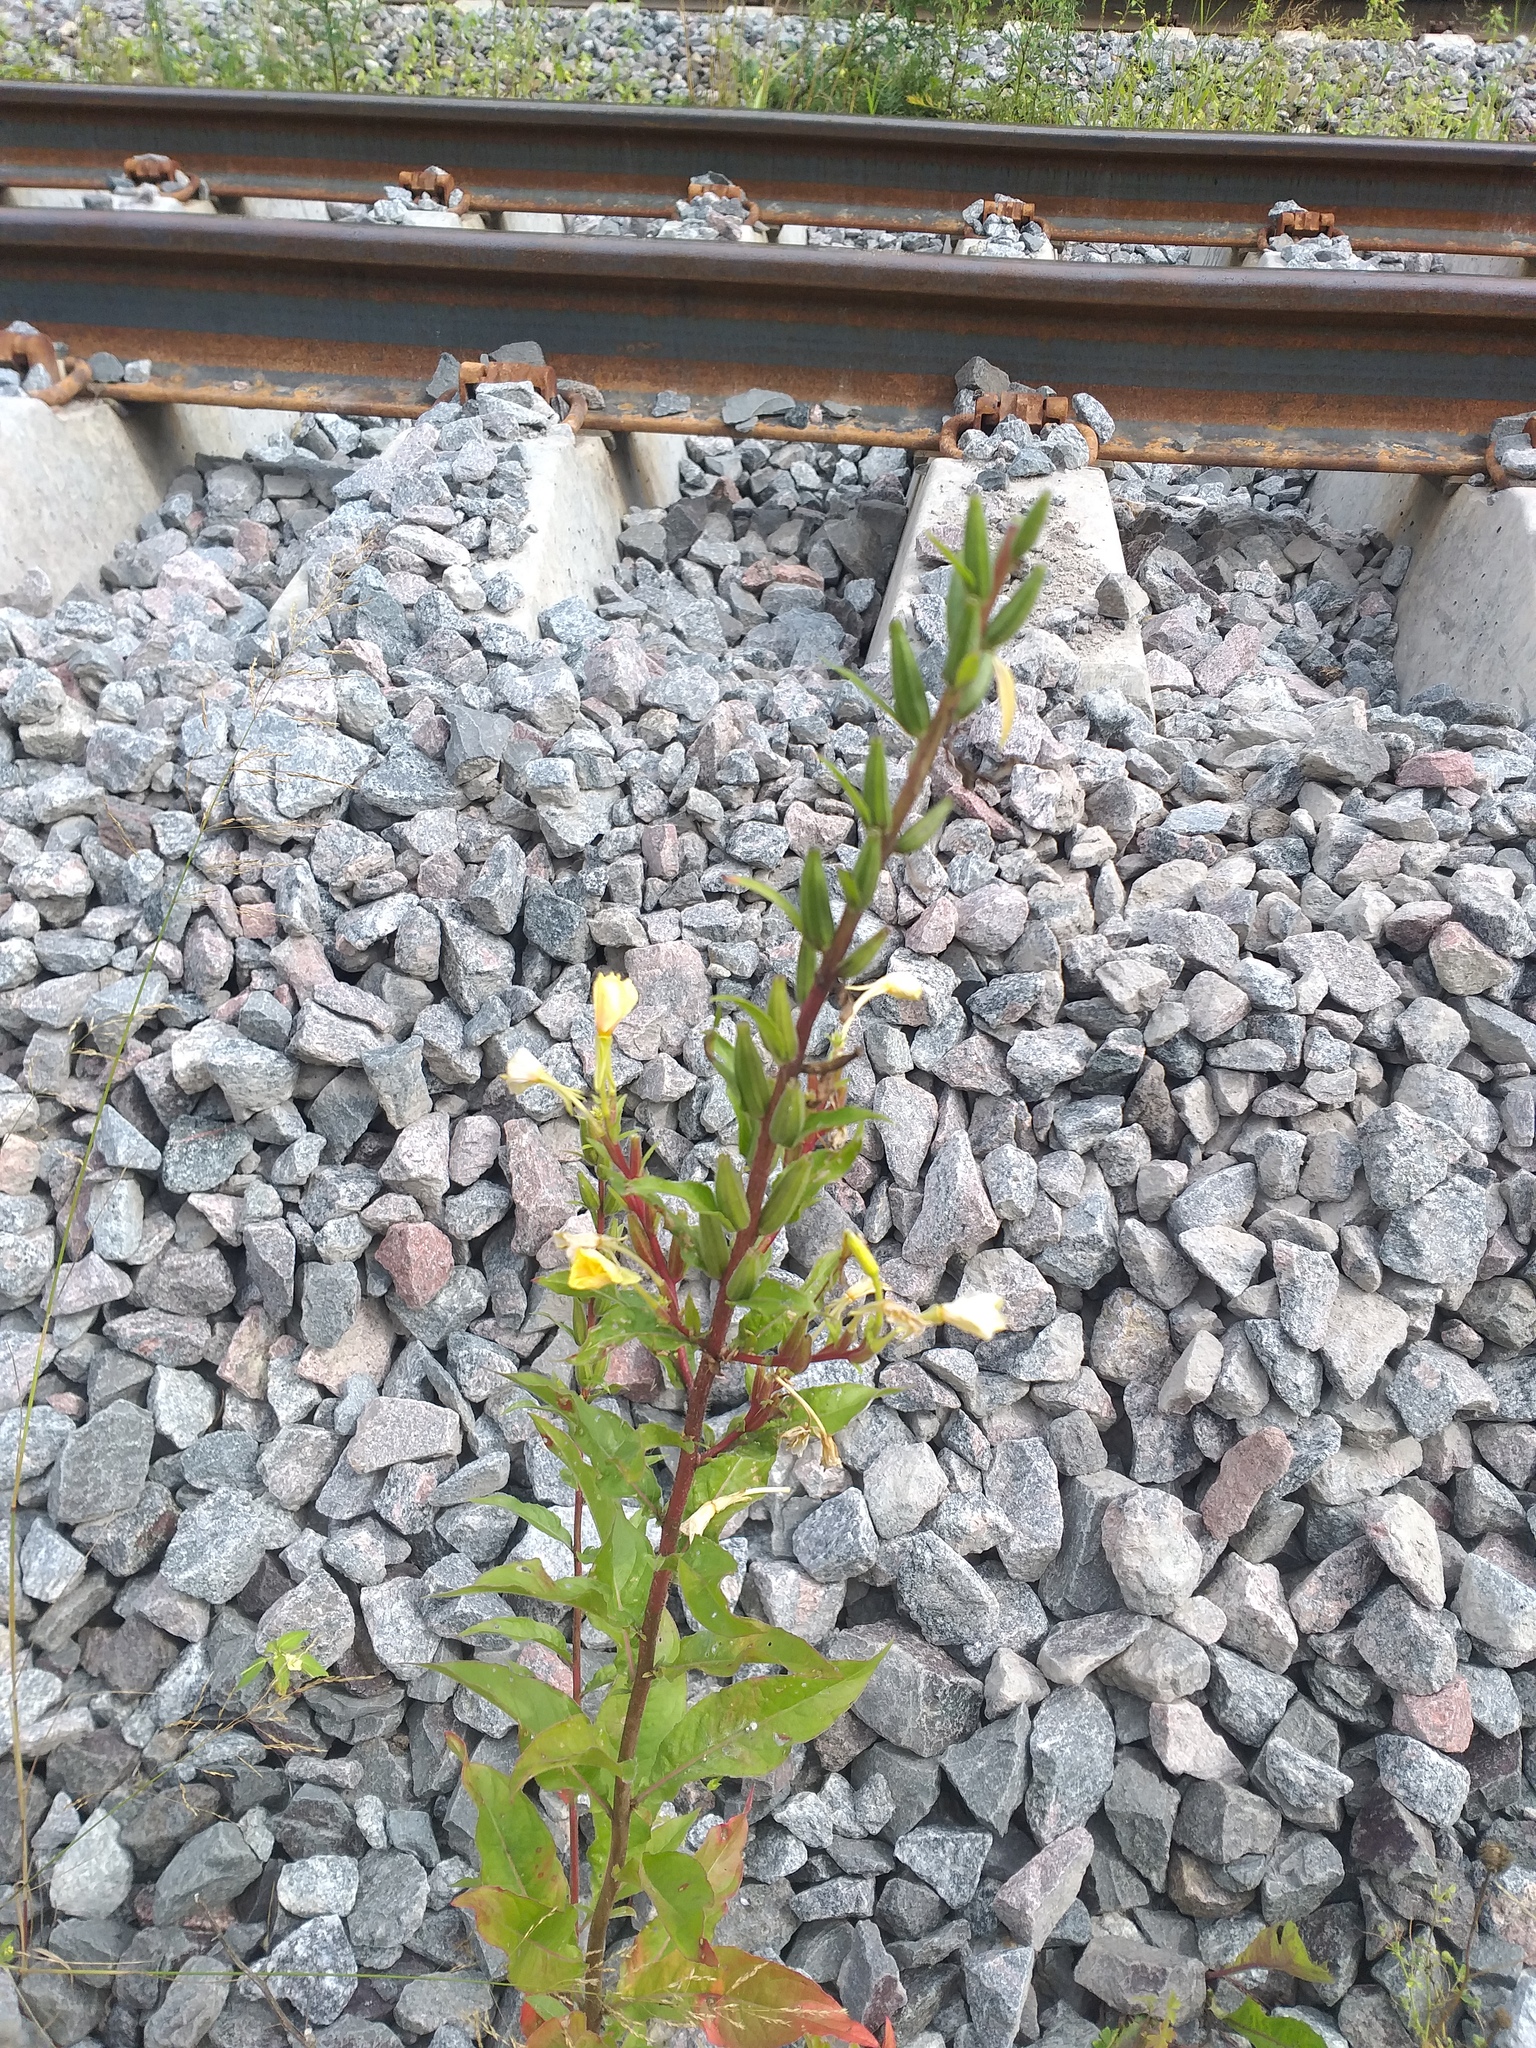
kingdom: Plantae
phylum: Tracheophyta
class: Magnoliopsida
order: Myrtales
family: Onagraceae
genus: Oenothera
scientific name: Oenothera rubricaulis
